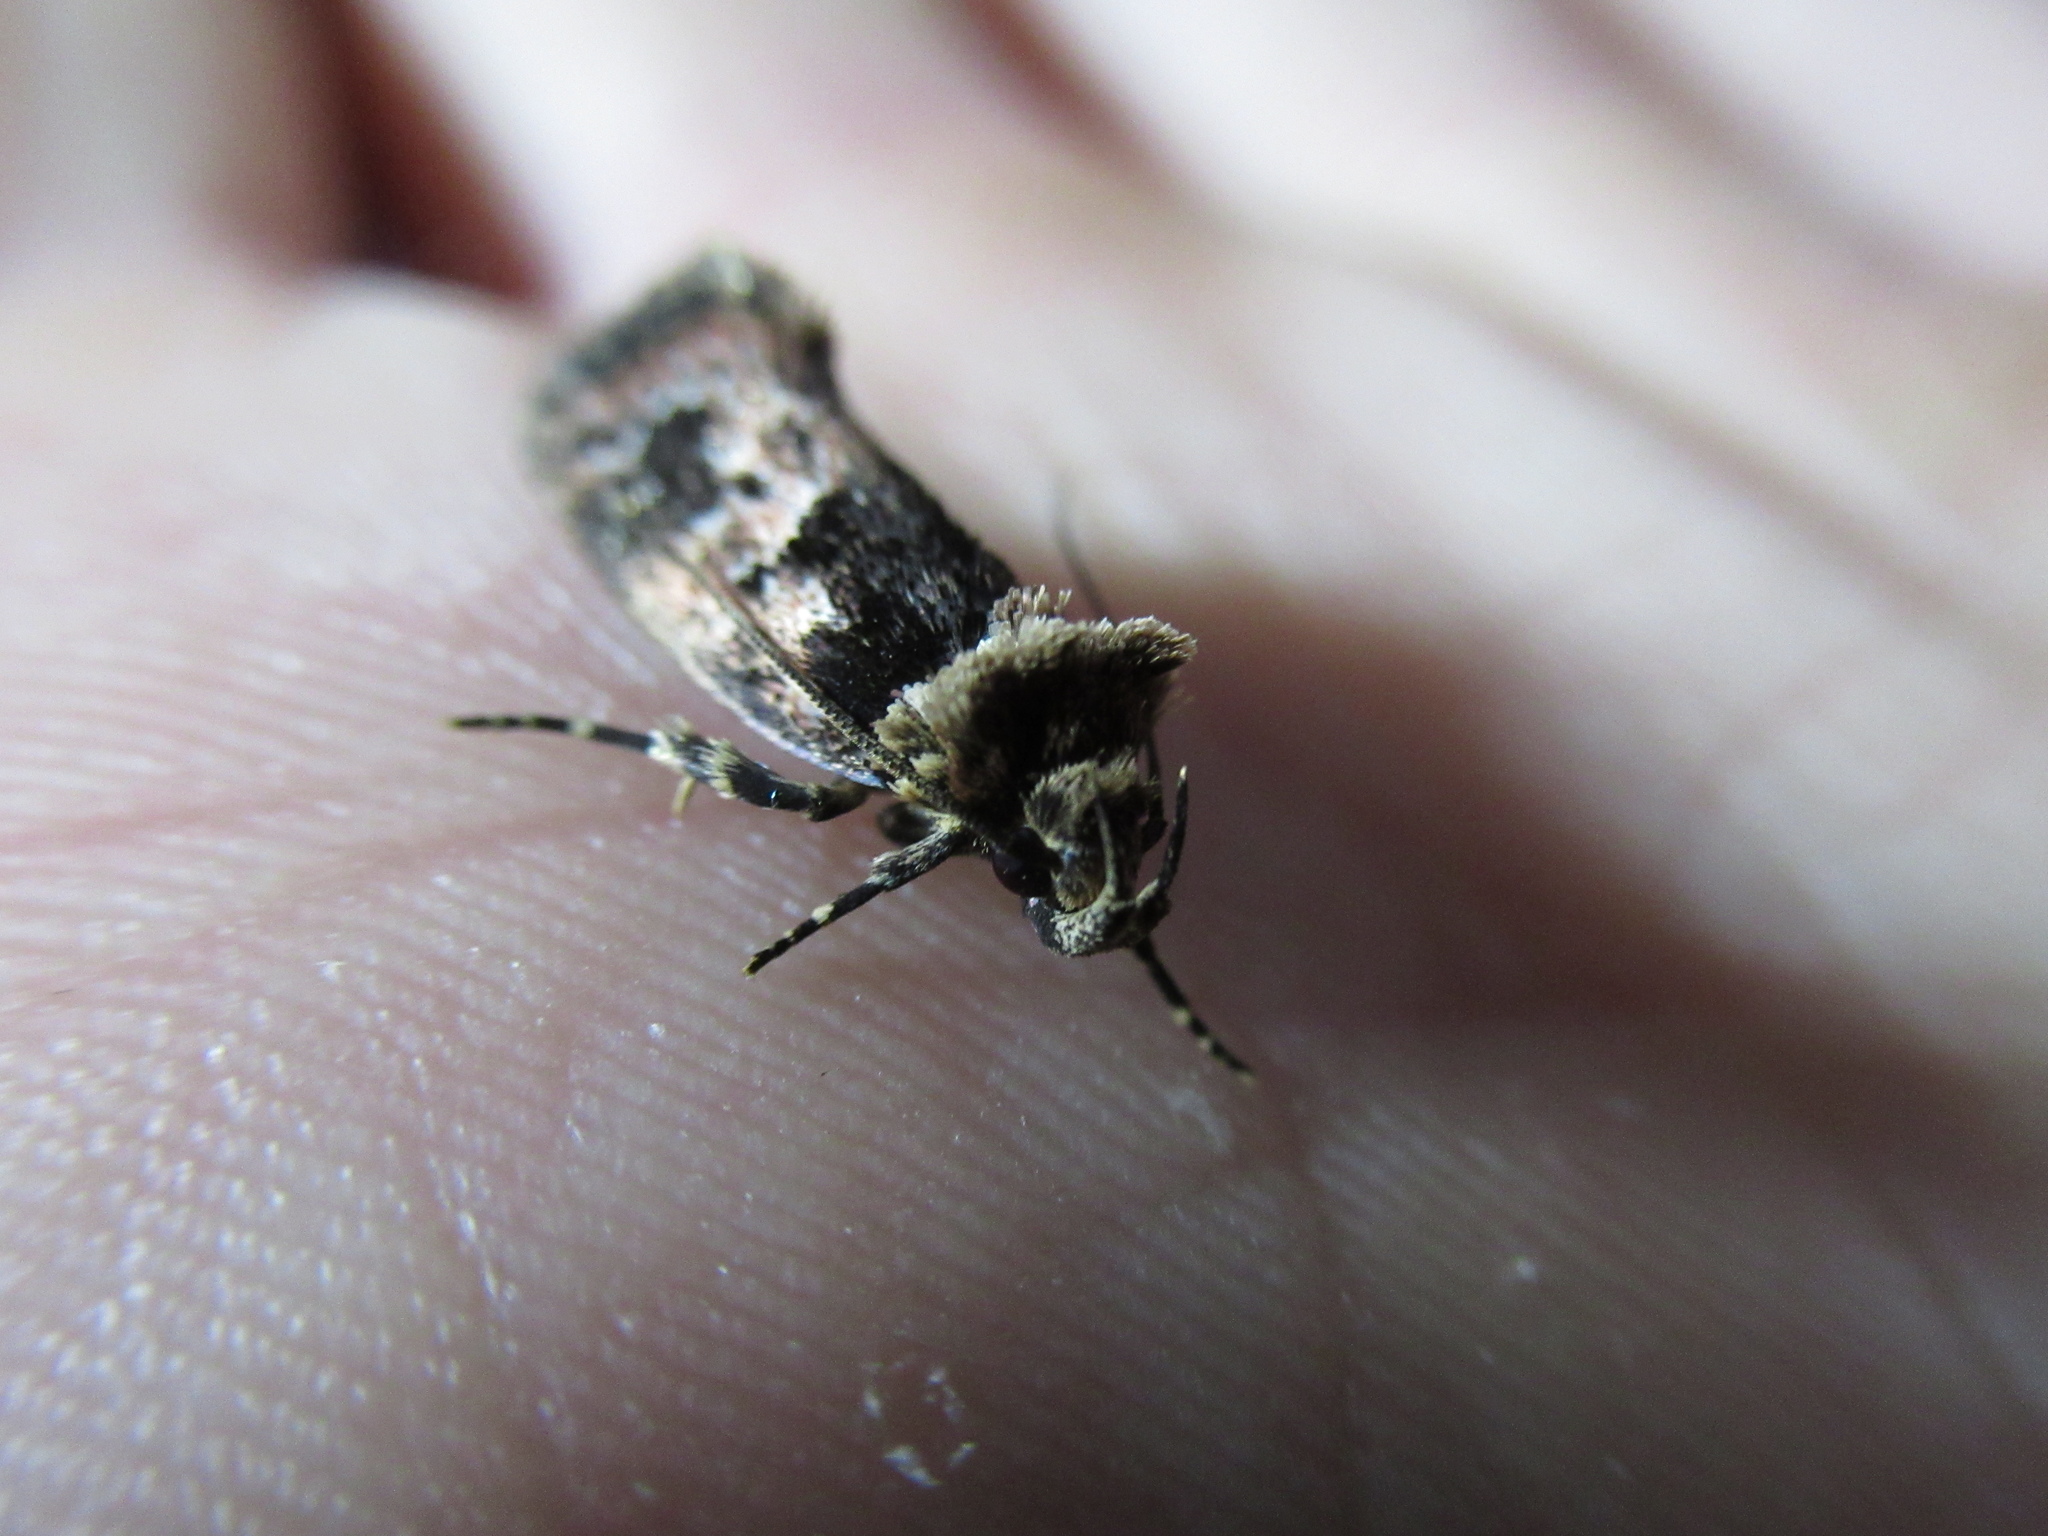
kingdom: Animalia
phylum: Arthropoda
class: Insecta
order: Lepidoptera
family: Oecophoridae
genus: Barea
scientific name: Barea consignatella
